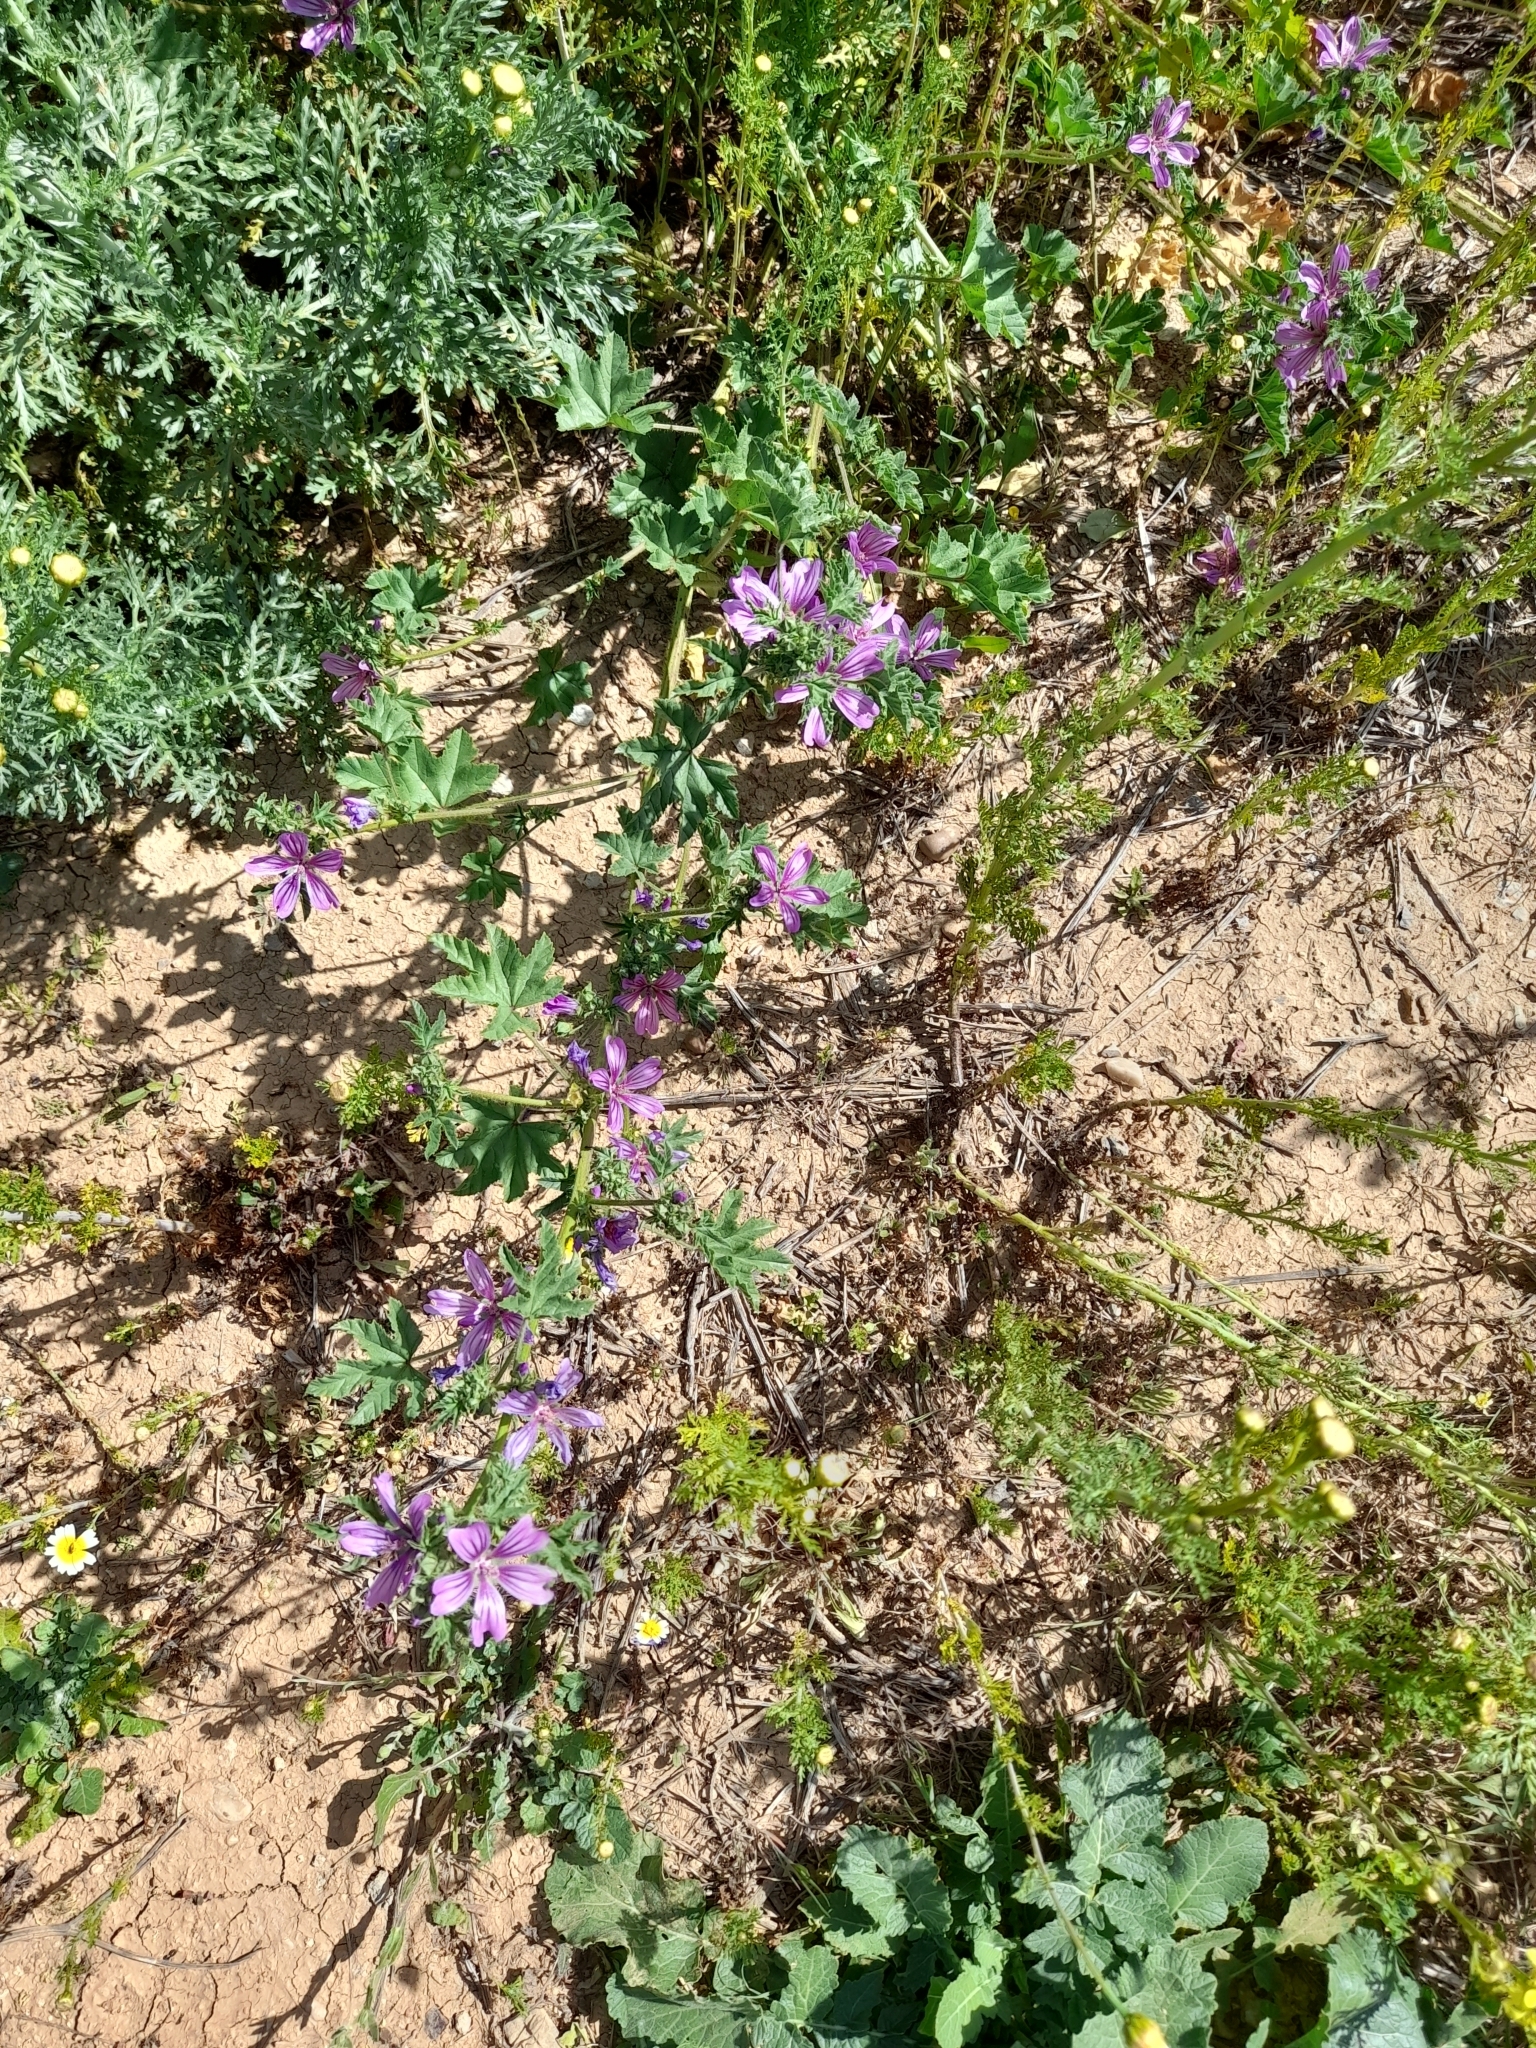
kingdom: Plantae
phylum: Tracheophyta
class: Magnoliopsida
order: Malvales
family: Malvaceae
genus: Malva
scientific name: Malva sylvestris
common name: Common mallow
